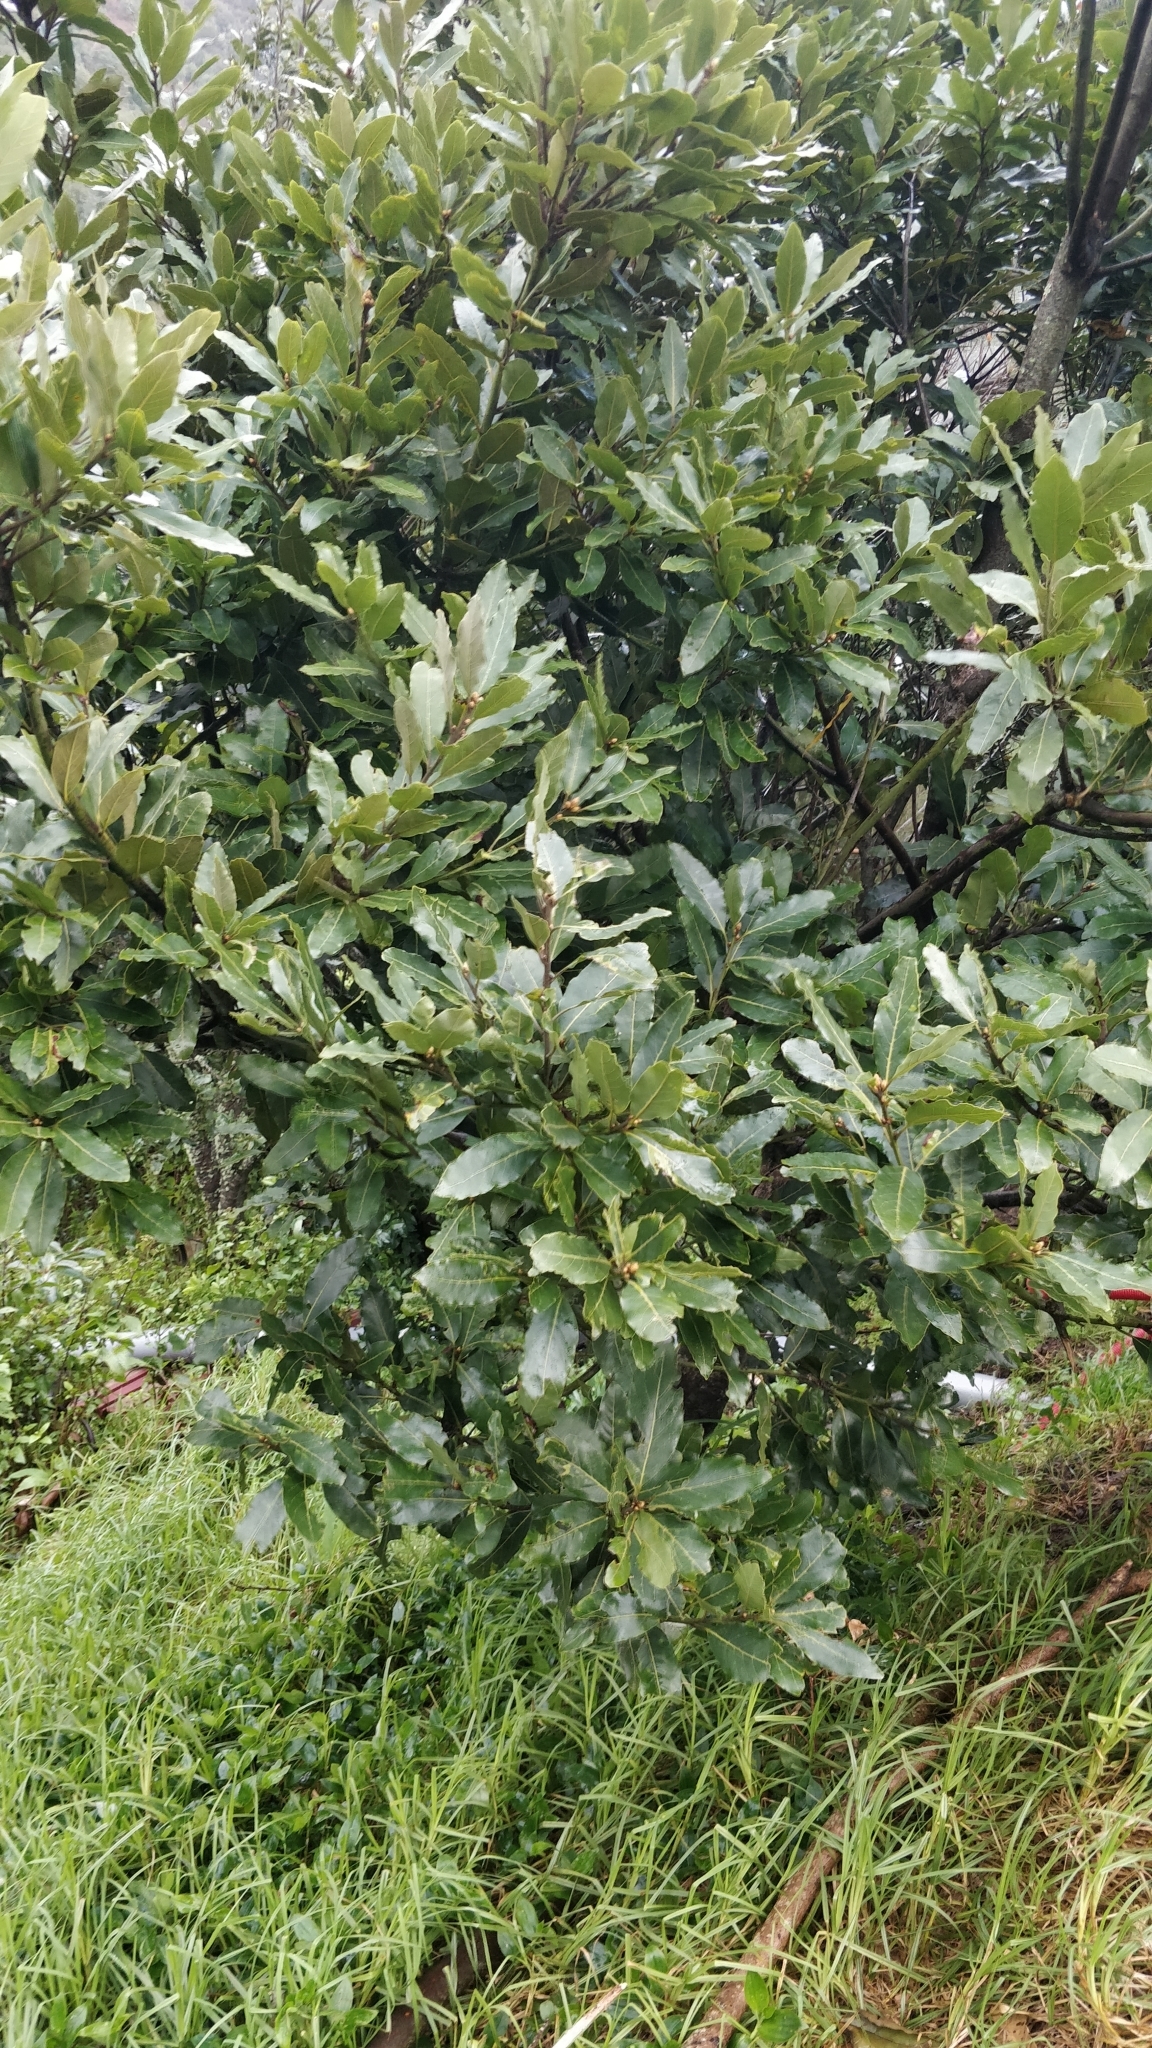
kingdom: Plantae
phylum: Tracheophyta
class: Magnoliopsida
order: Laurales
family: Lauraceae
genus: Laurus
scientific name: Laurus novocanariensis
